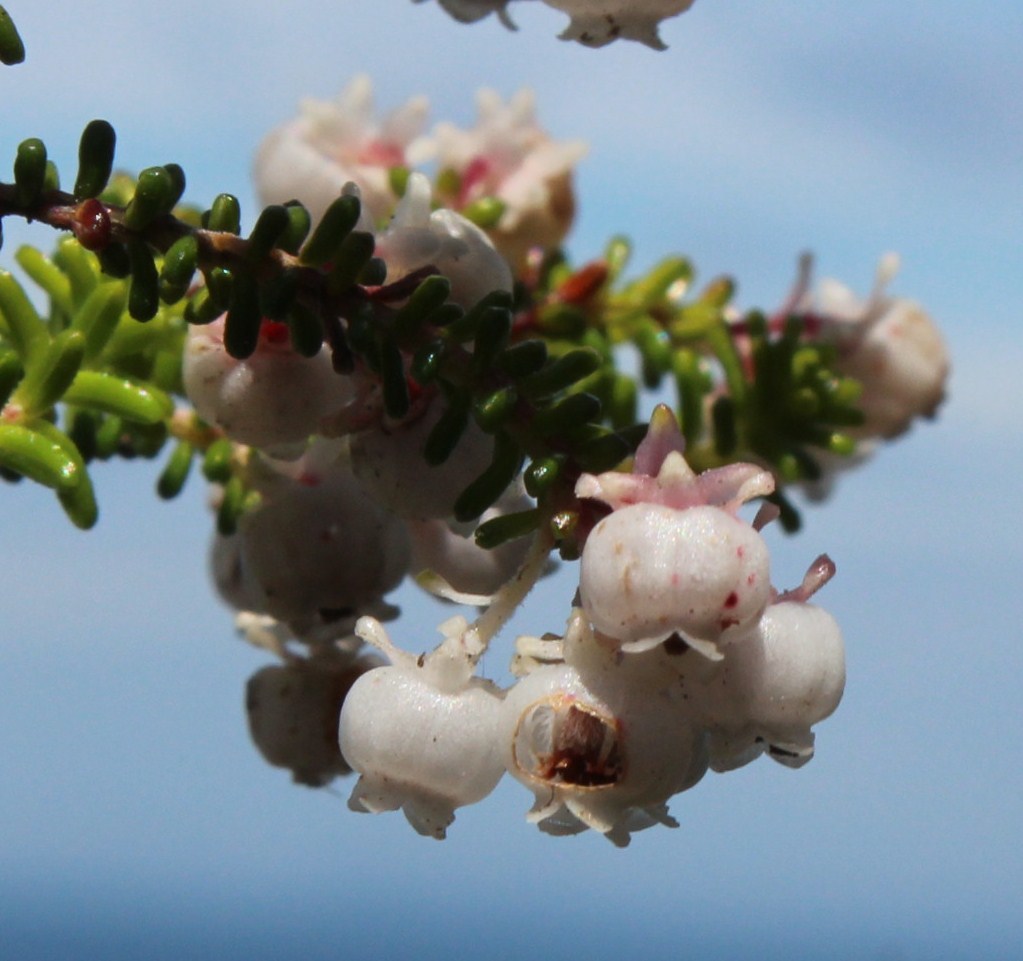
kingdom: Plantae
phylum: Tracheophyta
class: Magnoliopsida
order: Ericales
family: Ericaceae
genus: Erica
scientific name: Erica formosa
